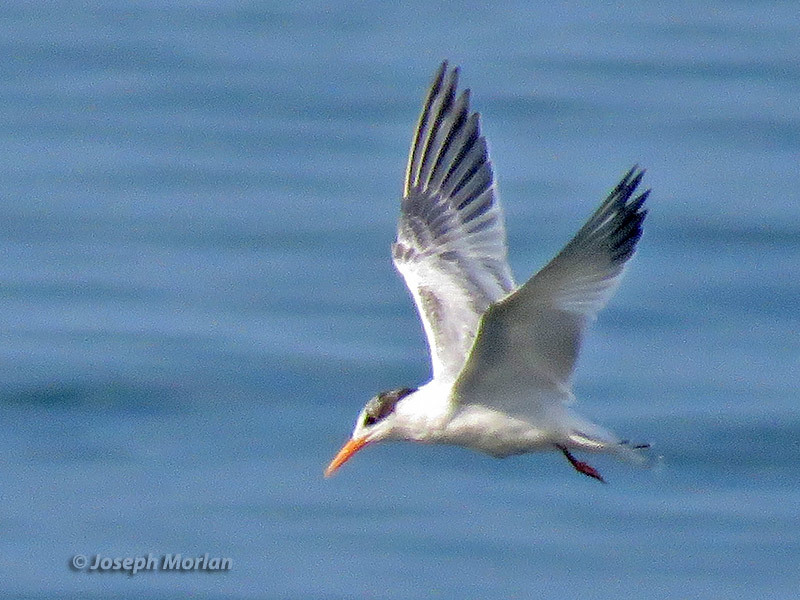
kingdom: Animalia
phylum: Chordata
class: Aves
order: Charadriiformes
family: Laridae
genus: Thalasseus
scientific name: Thalasseus elegans
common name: Elegant tern
